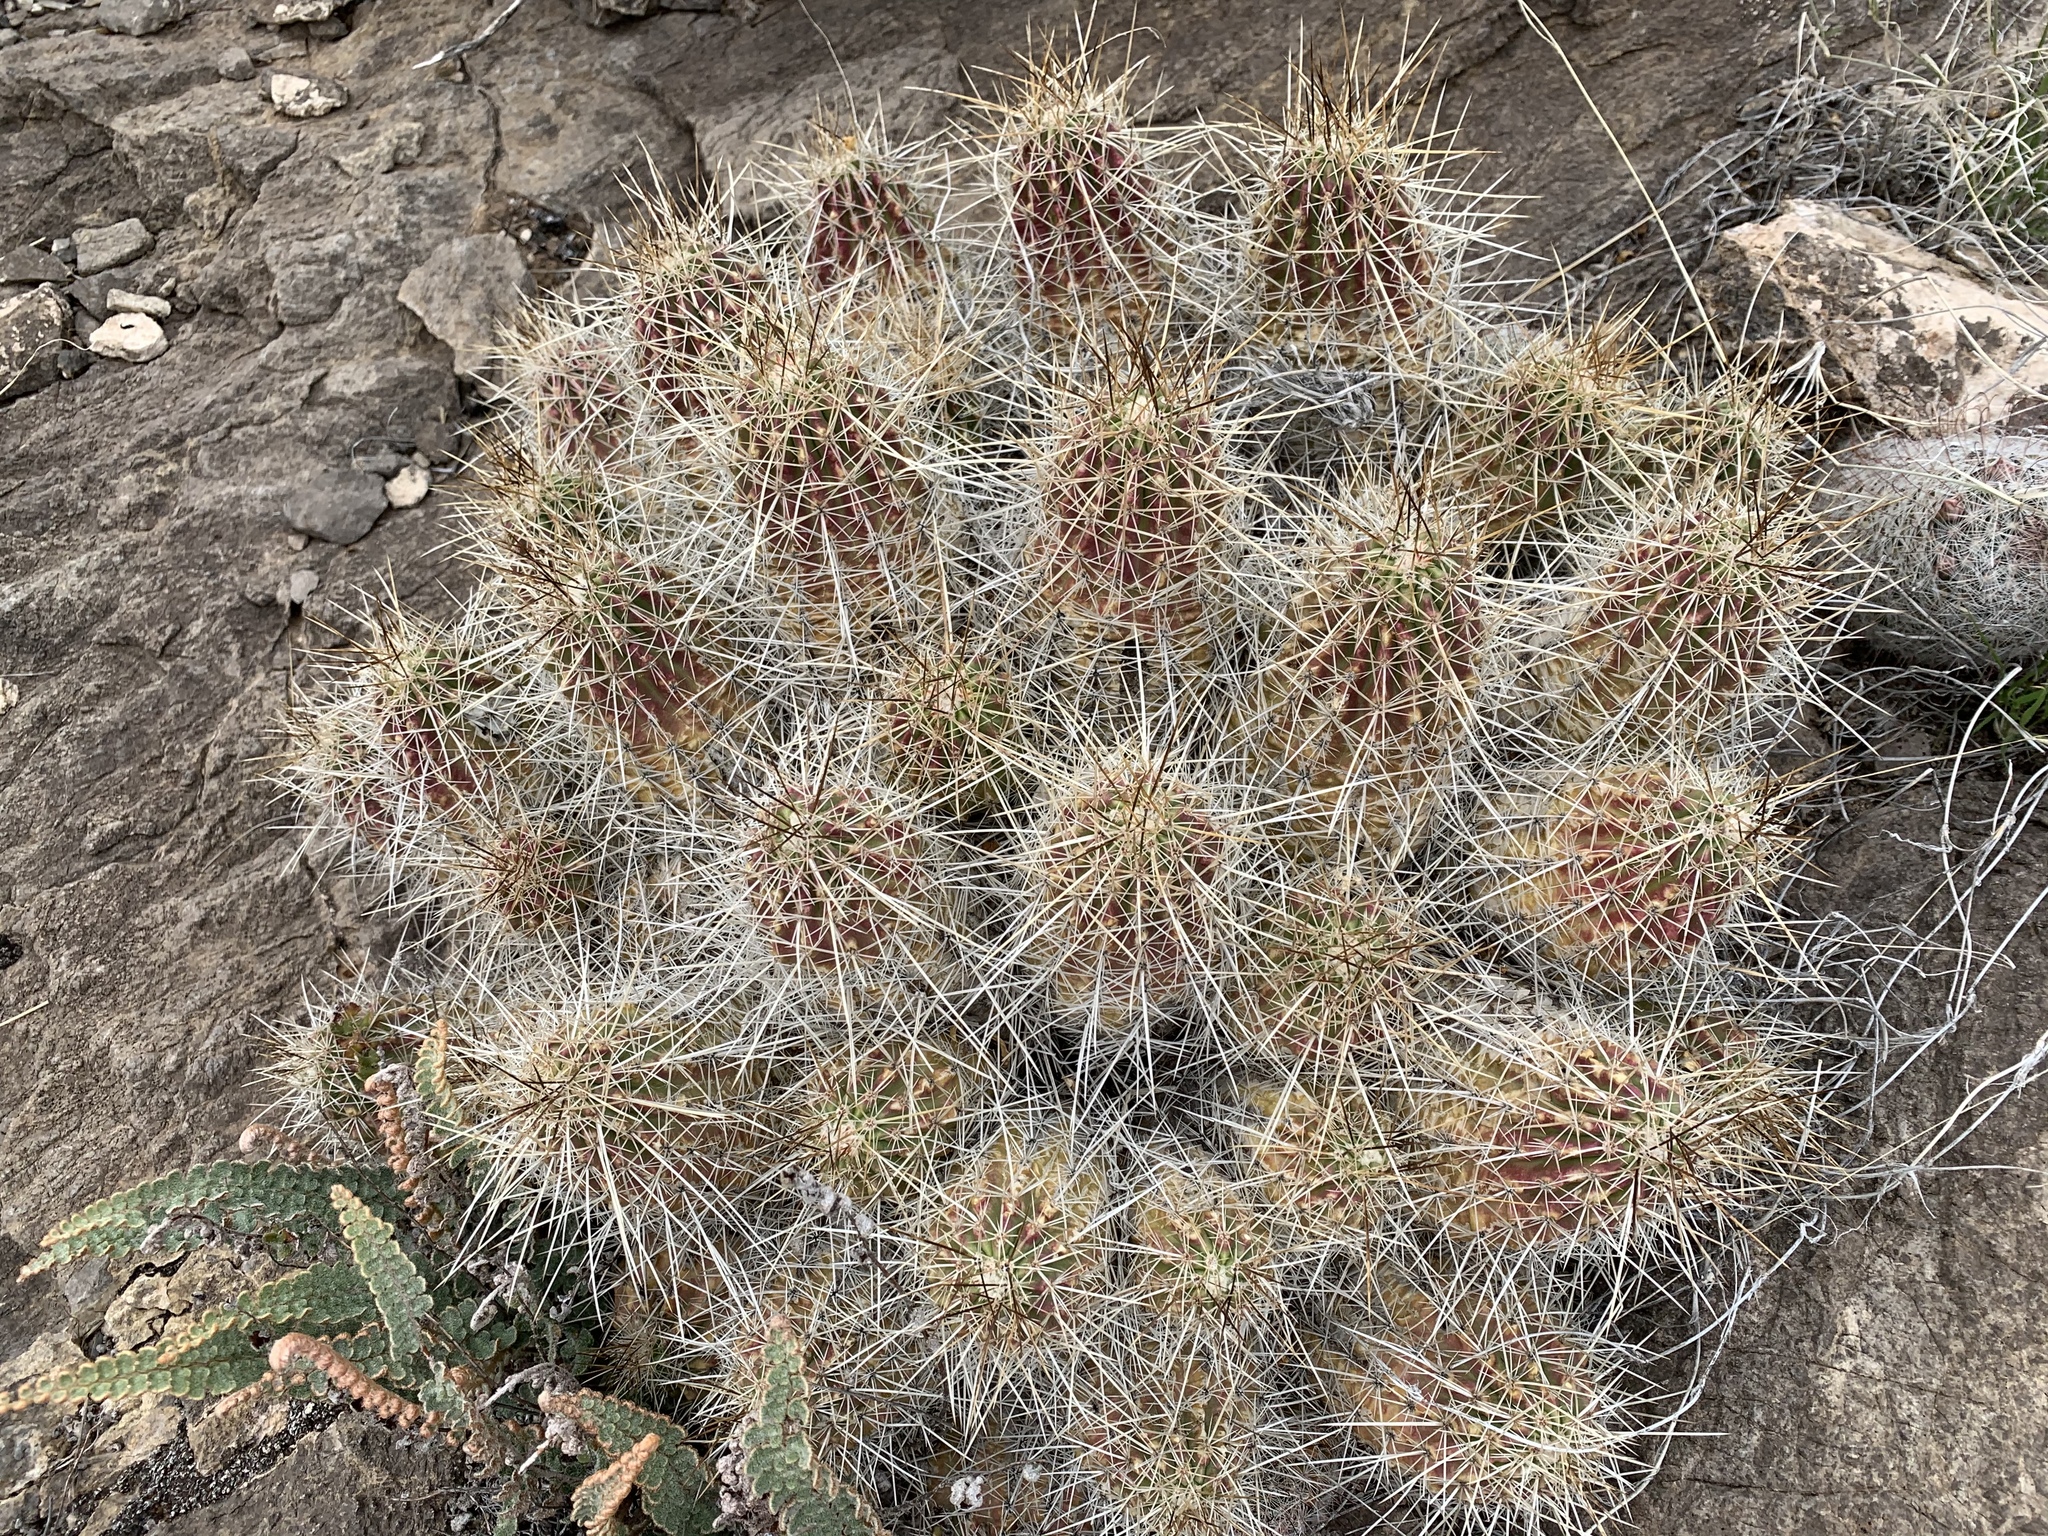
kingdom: Plantae
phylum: Tracheophyta
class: Magnoliopsida
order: Caryophyllales
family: Cactaceae
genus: Echinocereus
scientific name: Echinocereus stramineus
